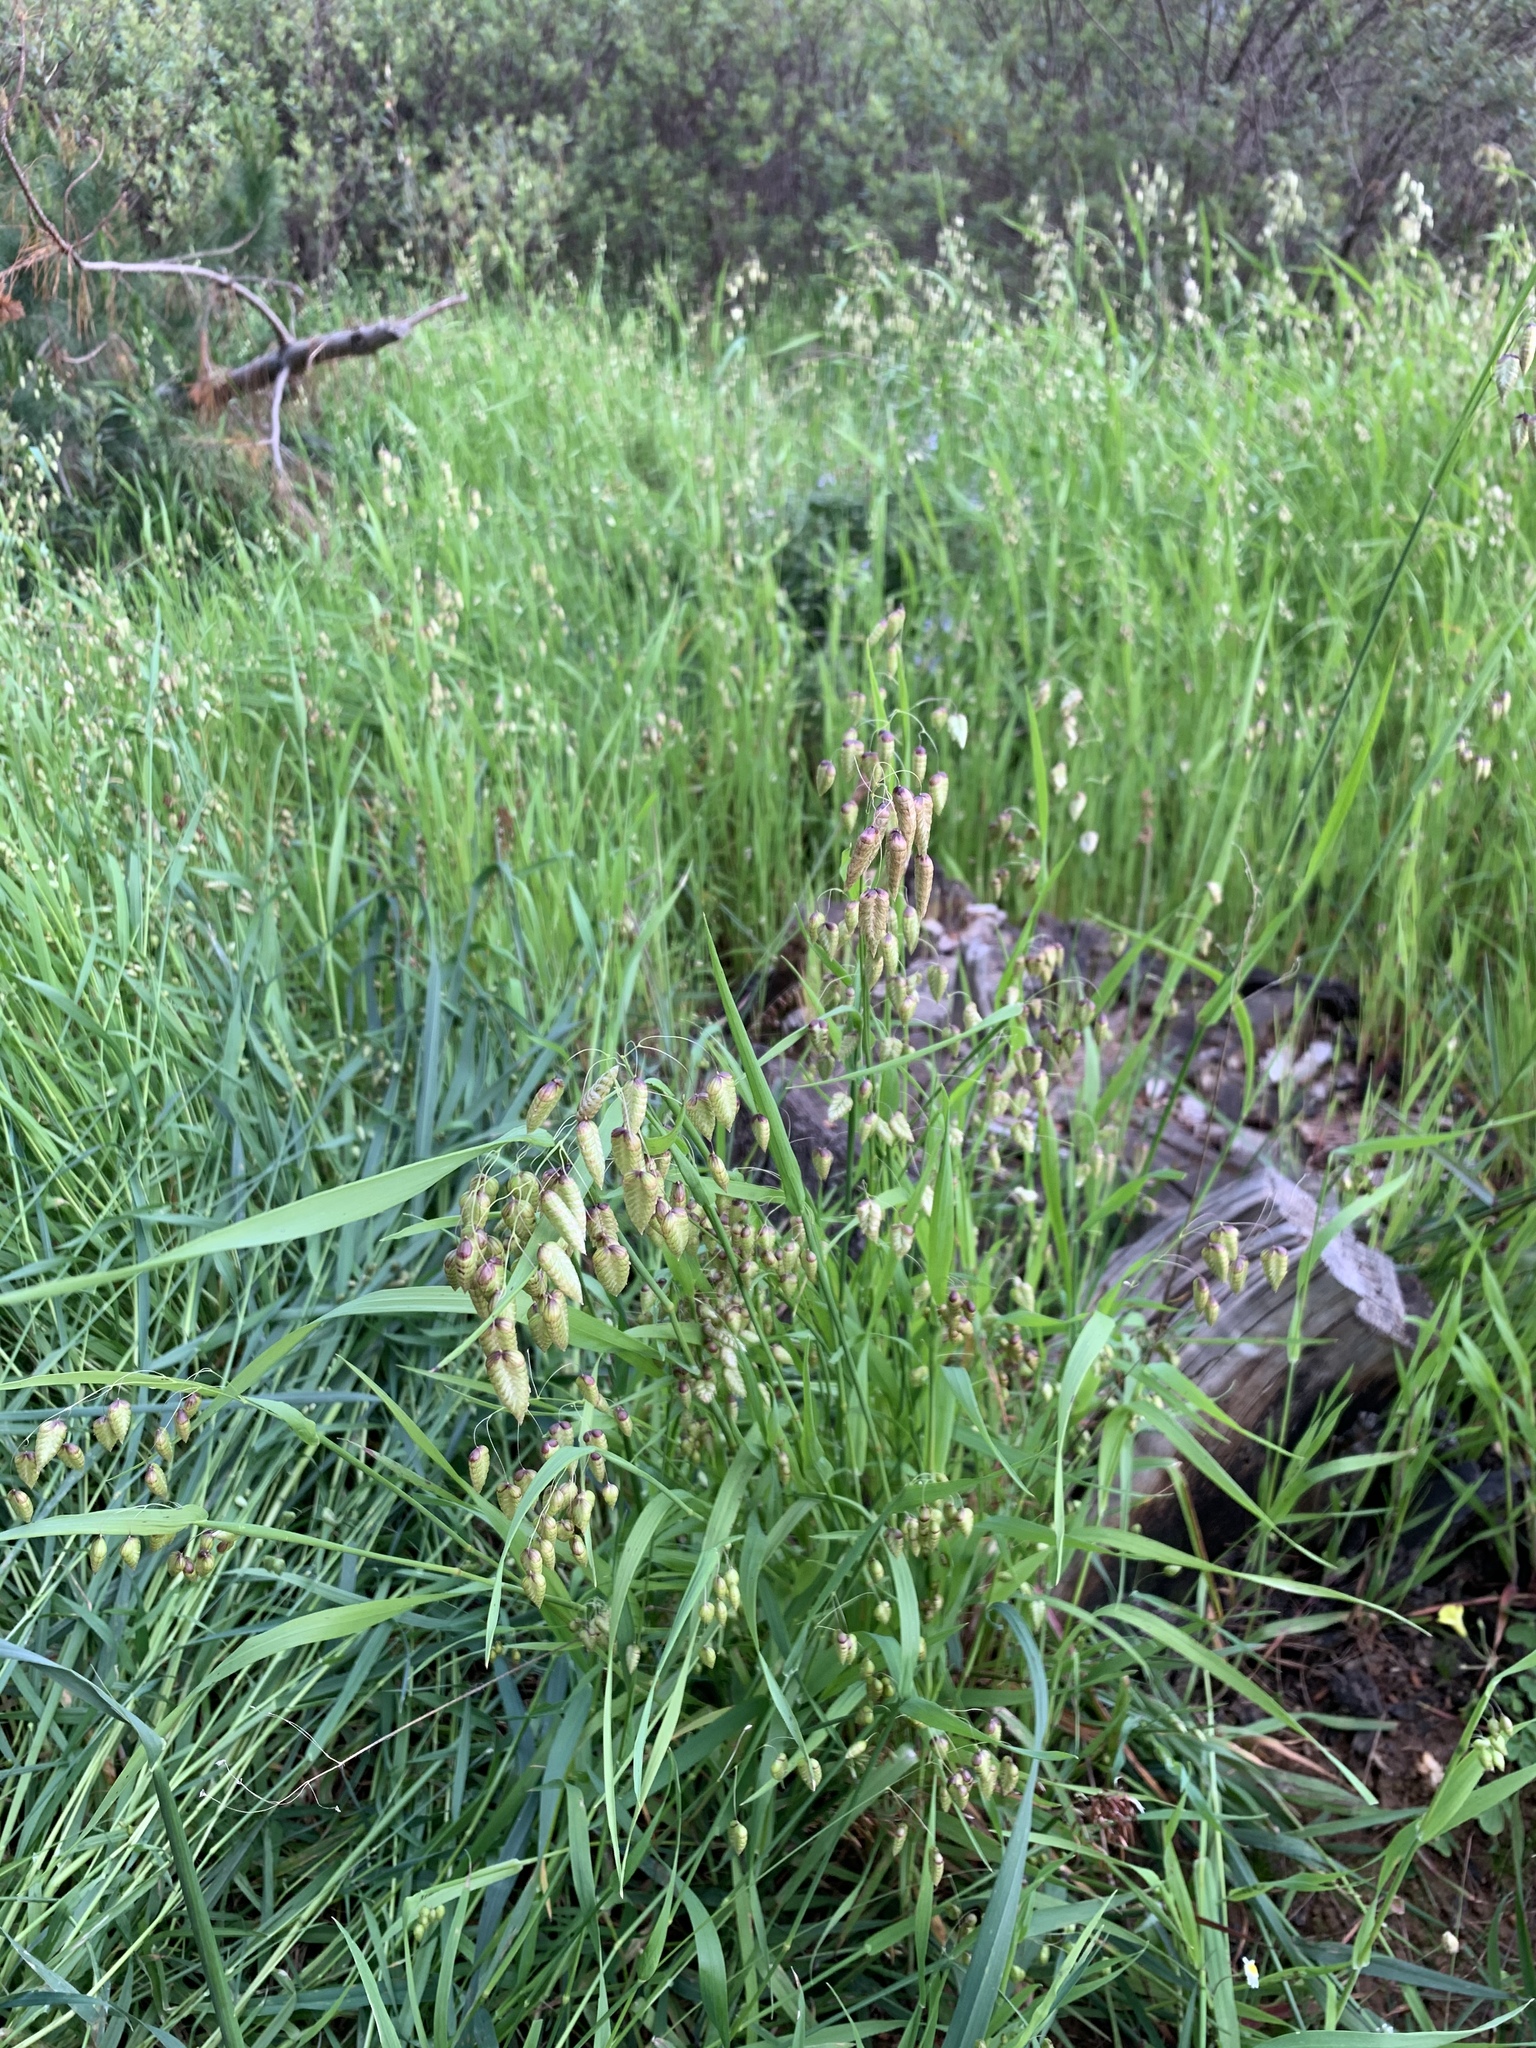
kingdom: Plantae
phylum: Tracheophyta
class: Liliopsida
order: Poales
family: Poaceae
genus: Briza
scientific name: Briza maxima
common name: Big quakinggrass
